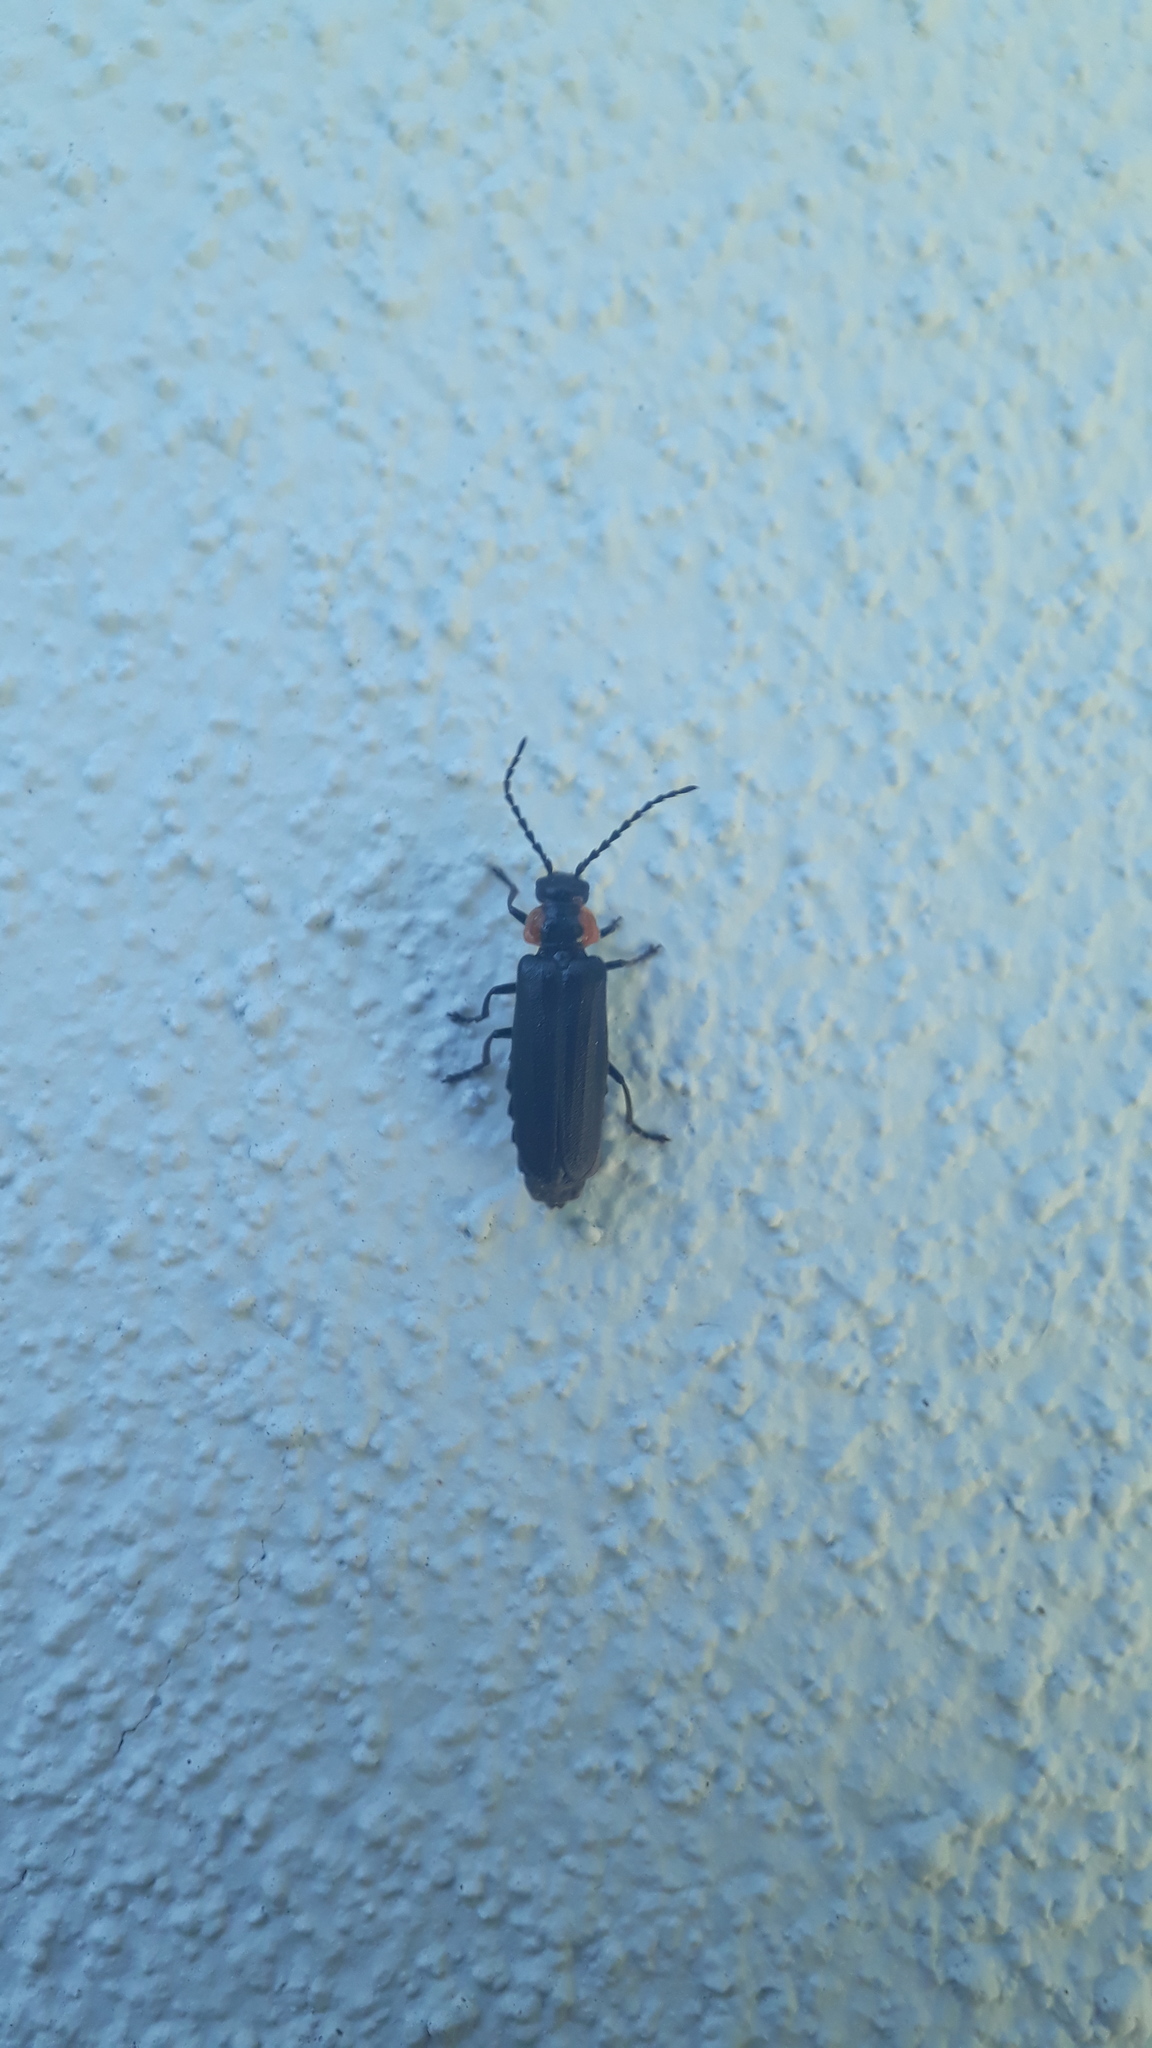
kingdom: Animalia
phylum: Arthropoda
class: Insecta
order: Coleoptera
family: Cantharidae
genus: Polemius
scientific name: Polemius
